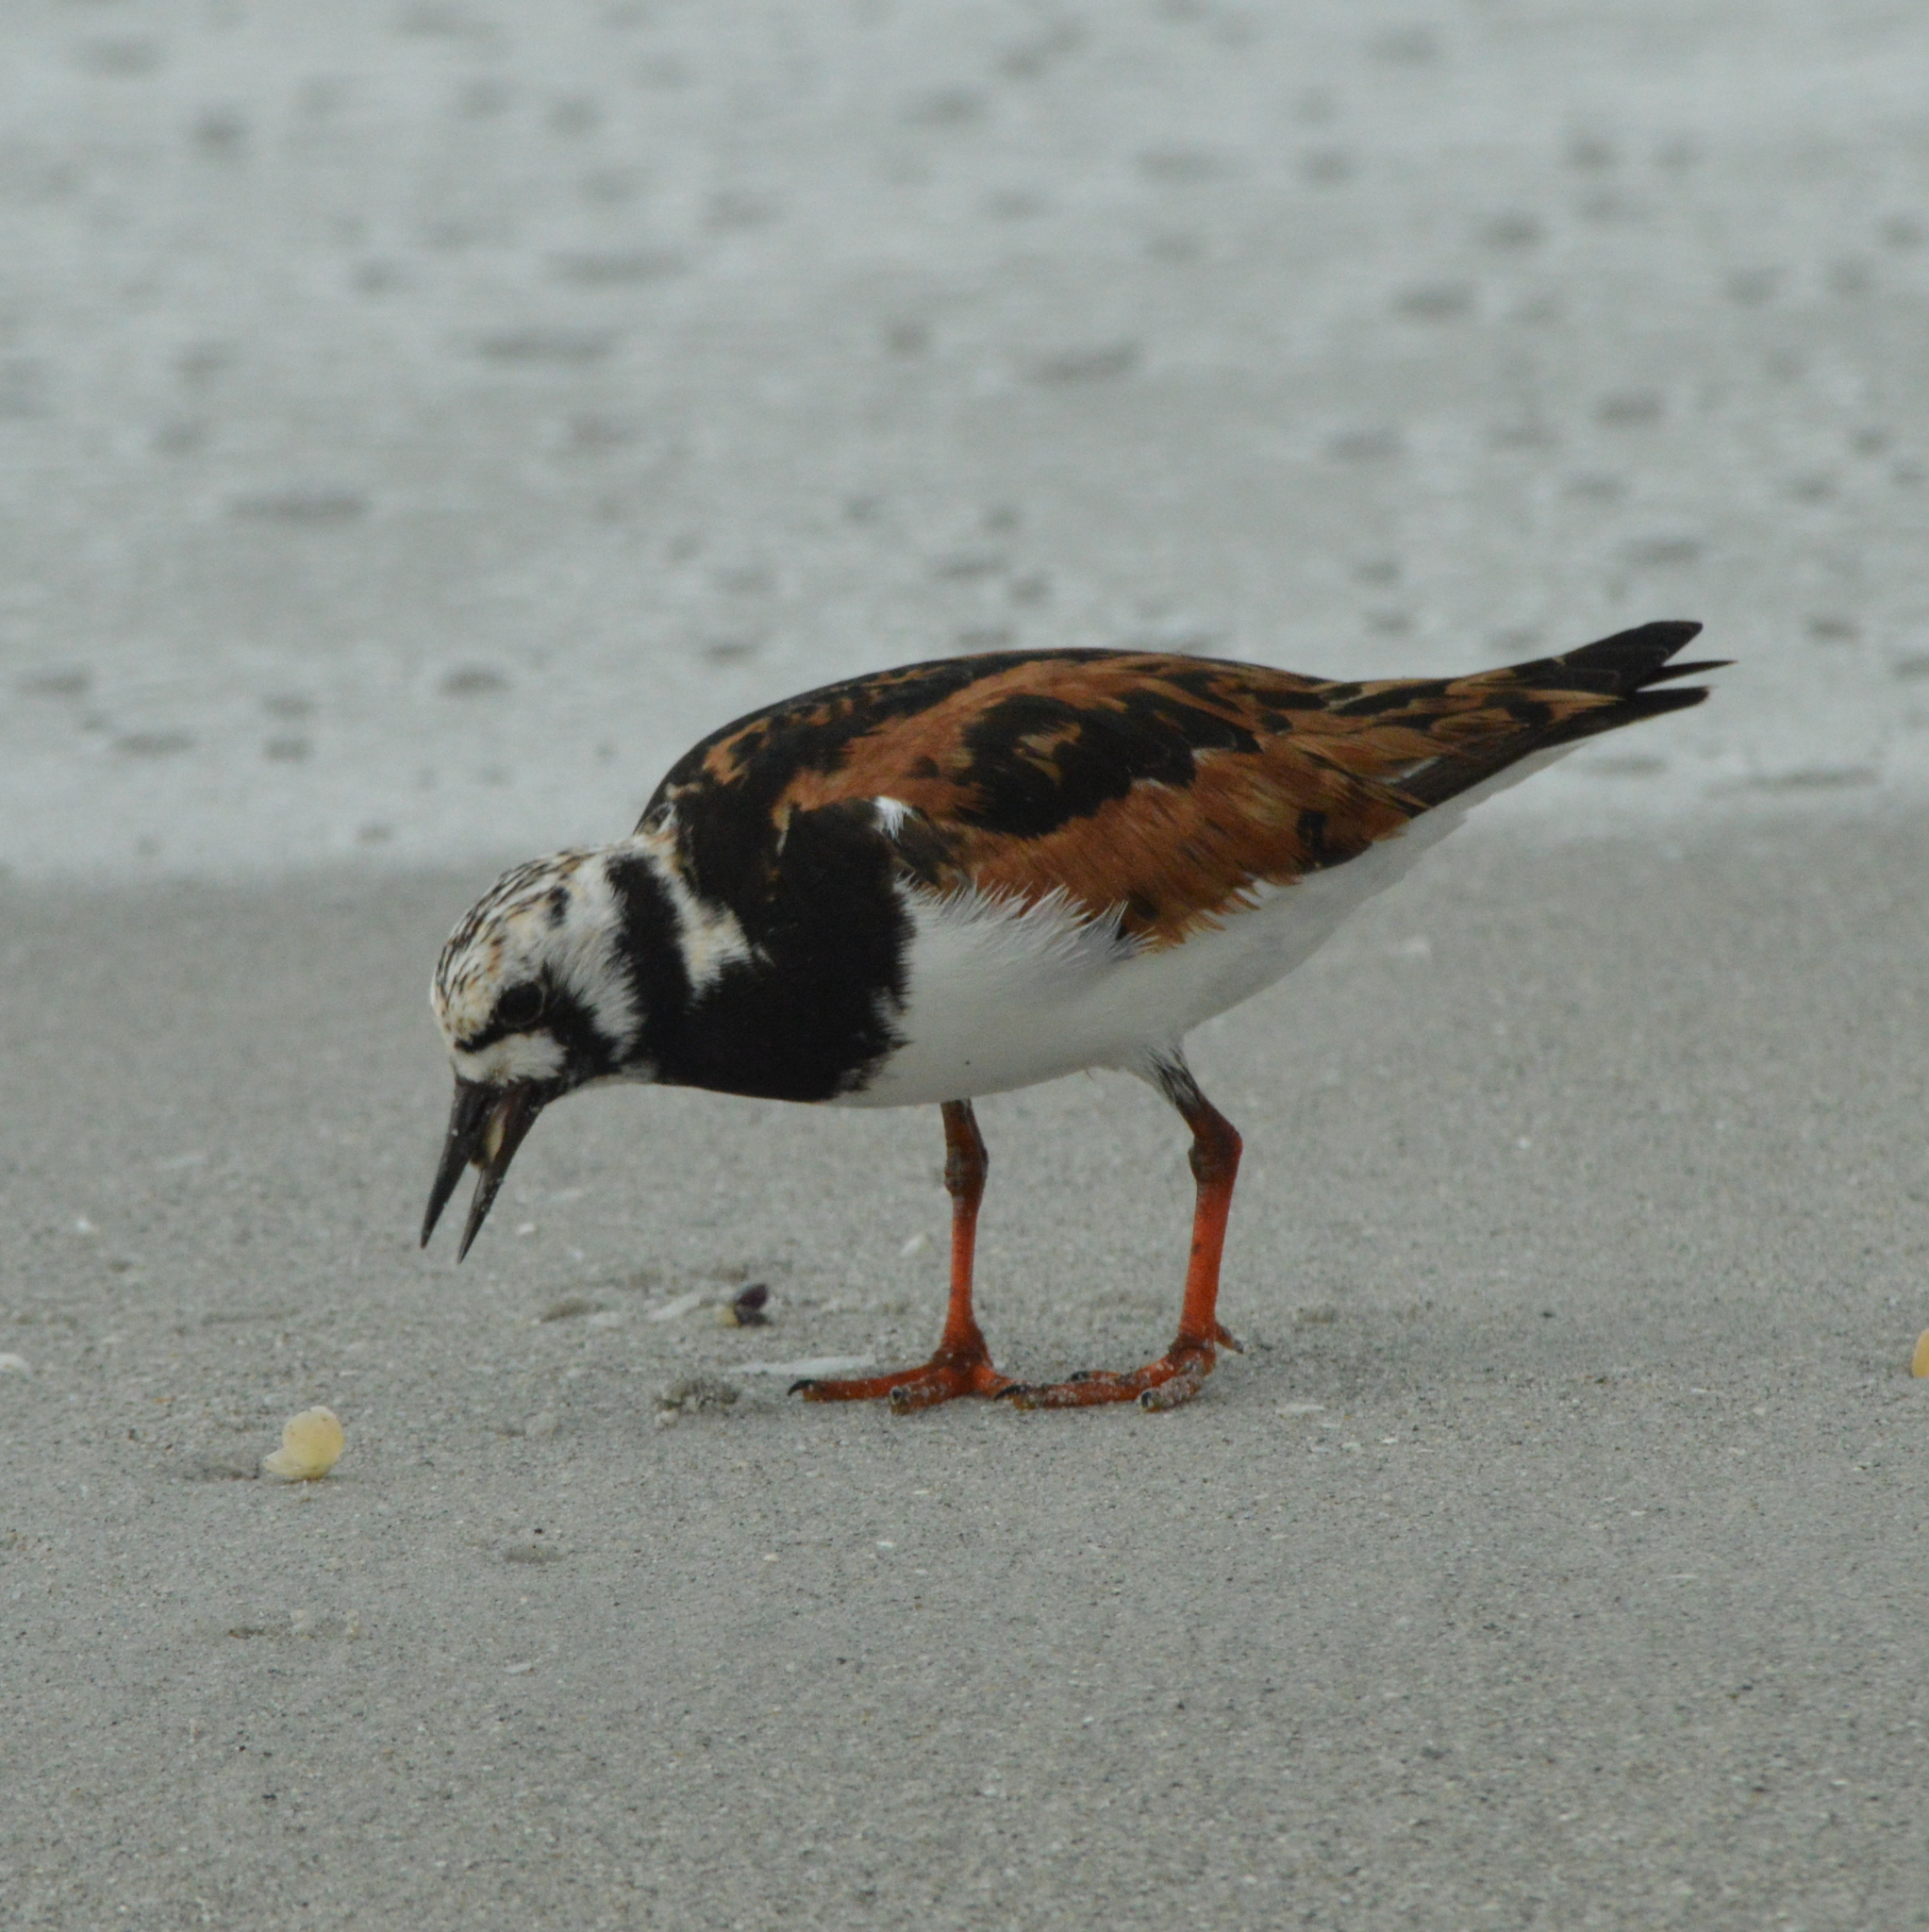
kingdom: Animalia
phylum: Chordata
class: Aves
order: Charadriiformes
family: Scolopacidae
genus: Arenaria
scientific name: Arenaria interpres
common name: Ruddy turnstone
